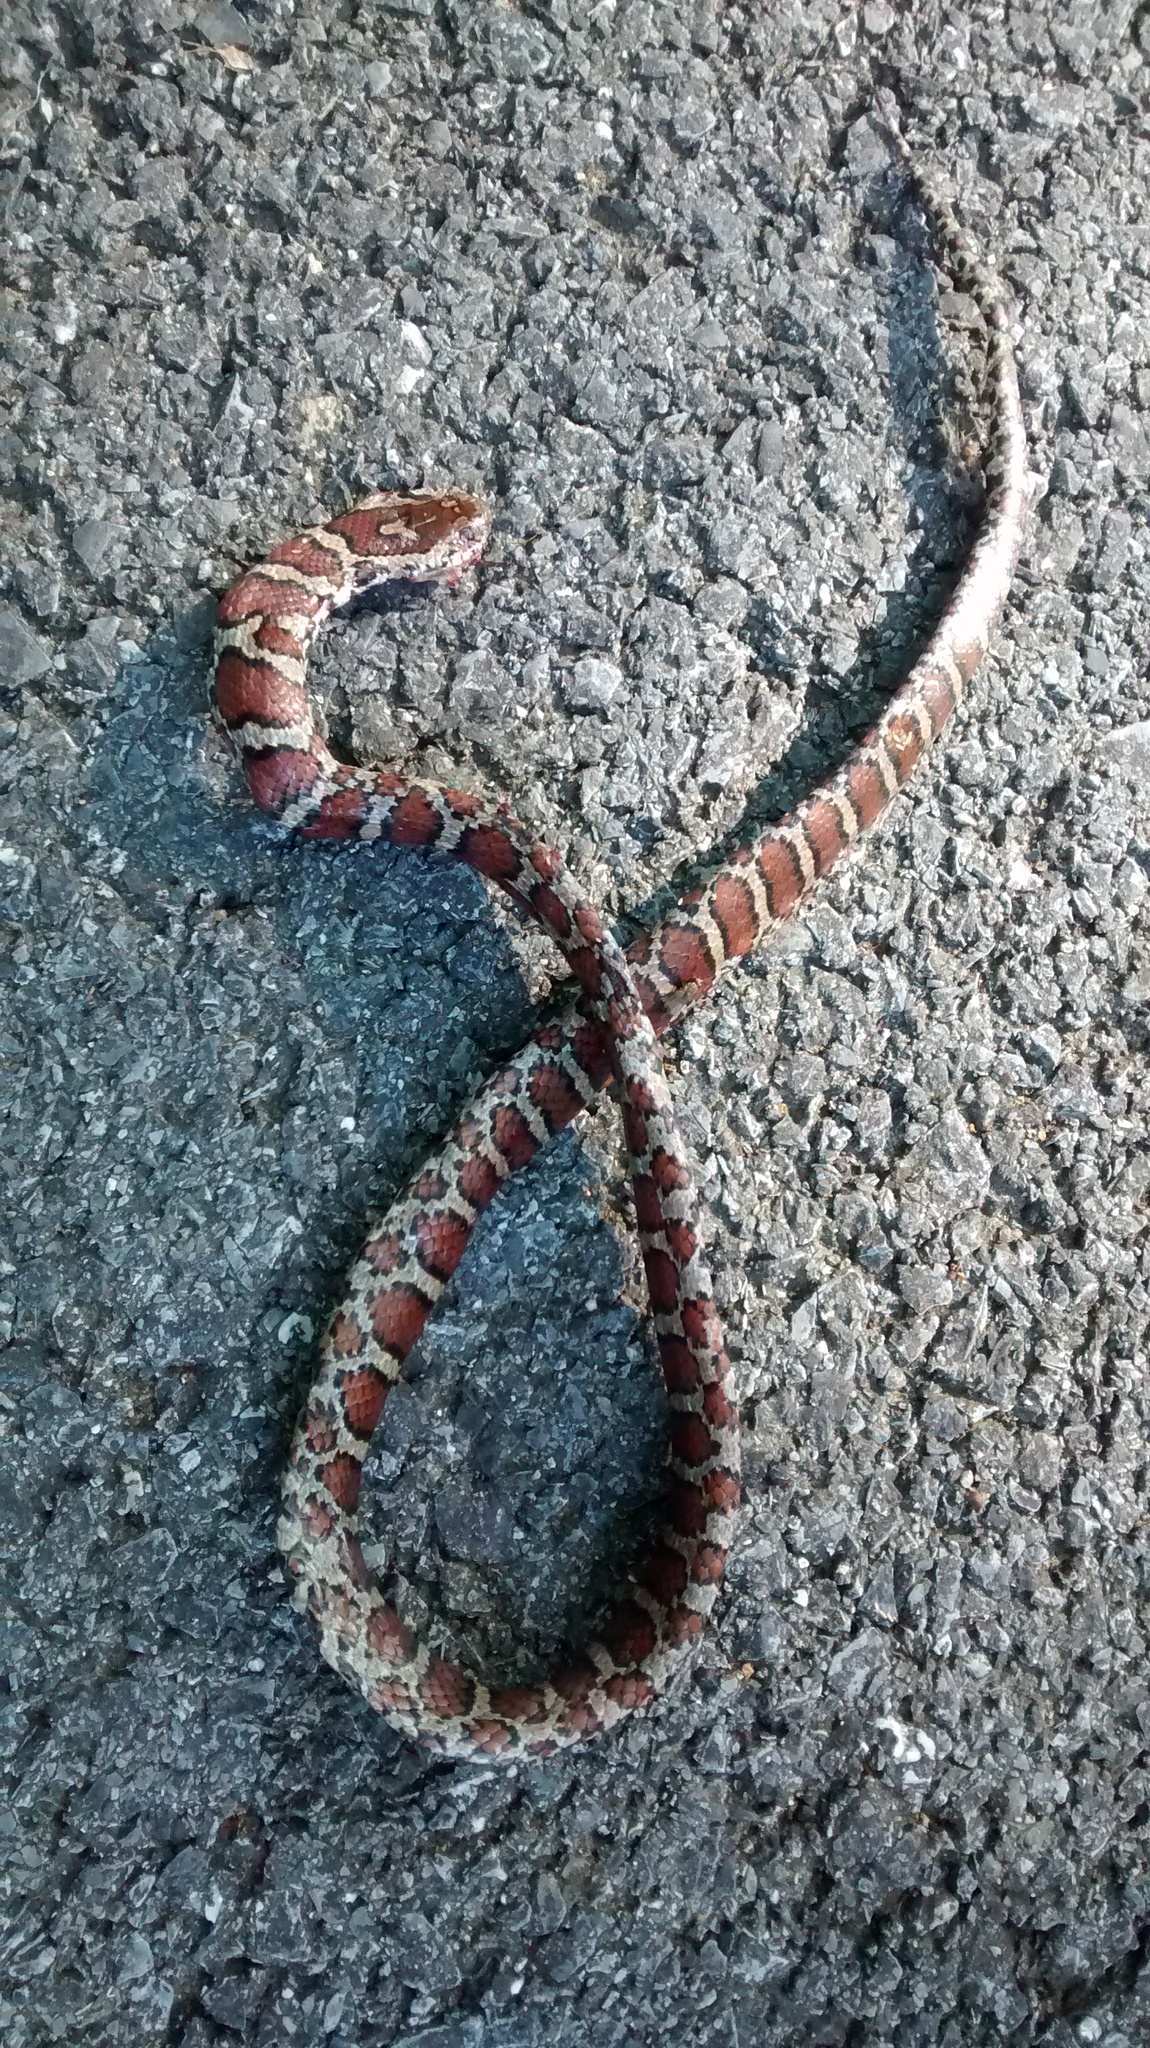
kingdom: Animalia
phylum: Chordata
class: Squamata
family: Colubridae
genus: Lampropeltis
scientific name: Lampropeltis triangulum
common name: Eastern milksnake
